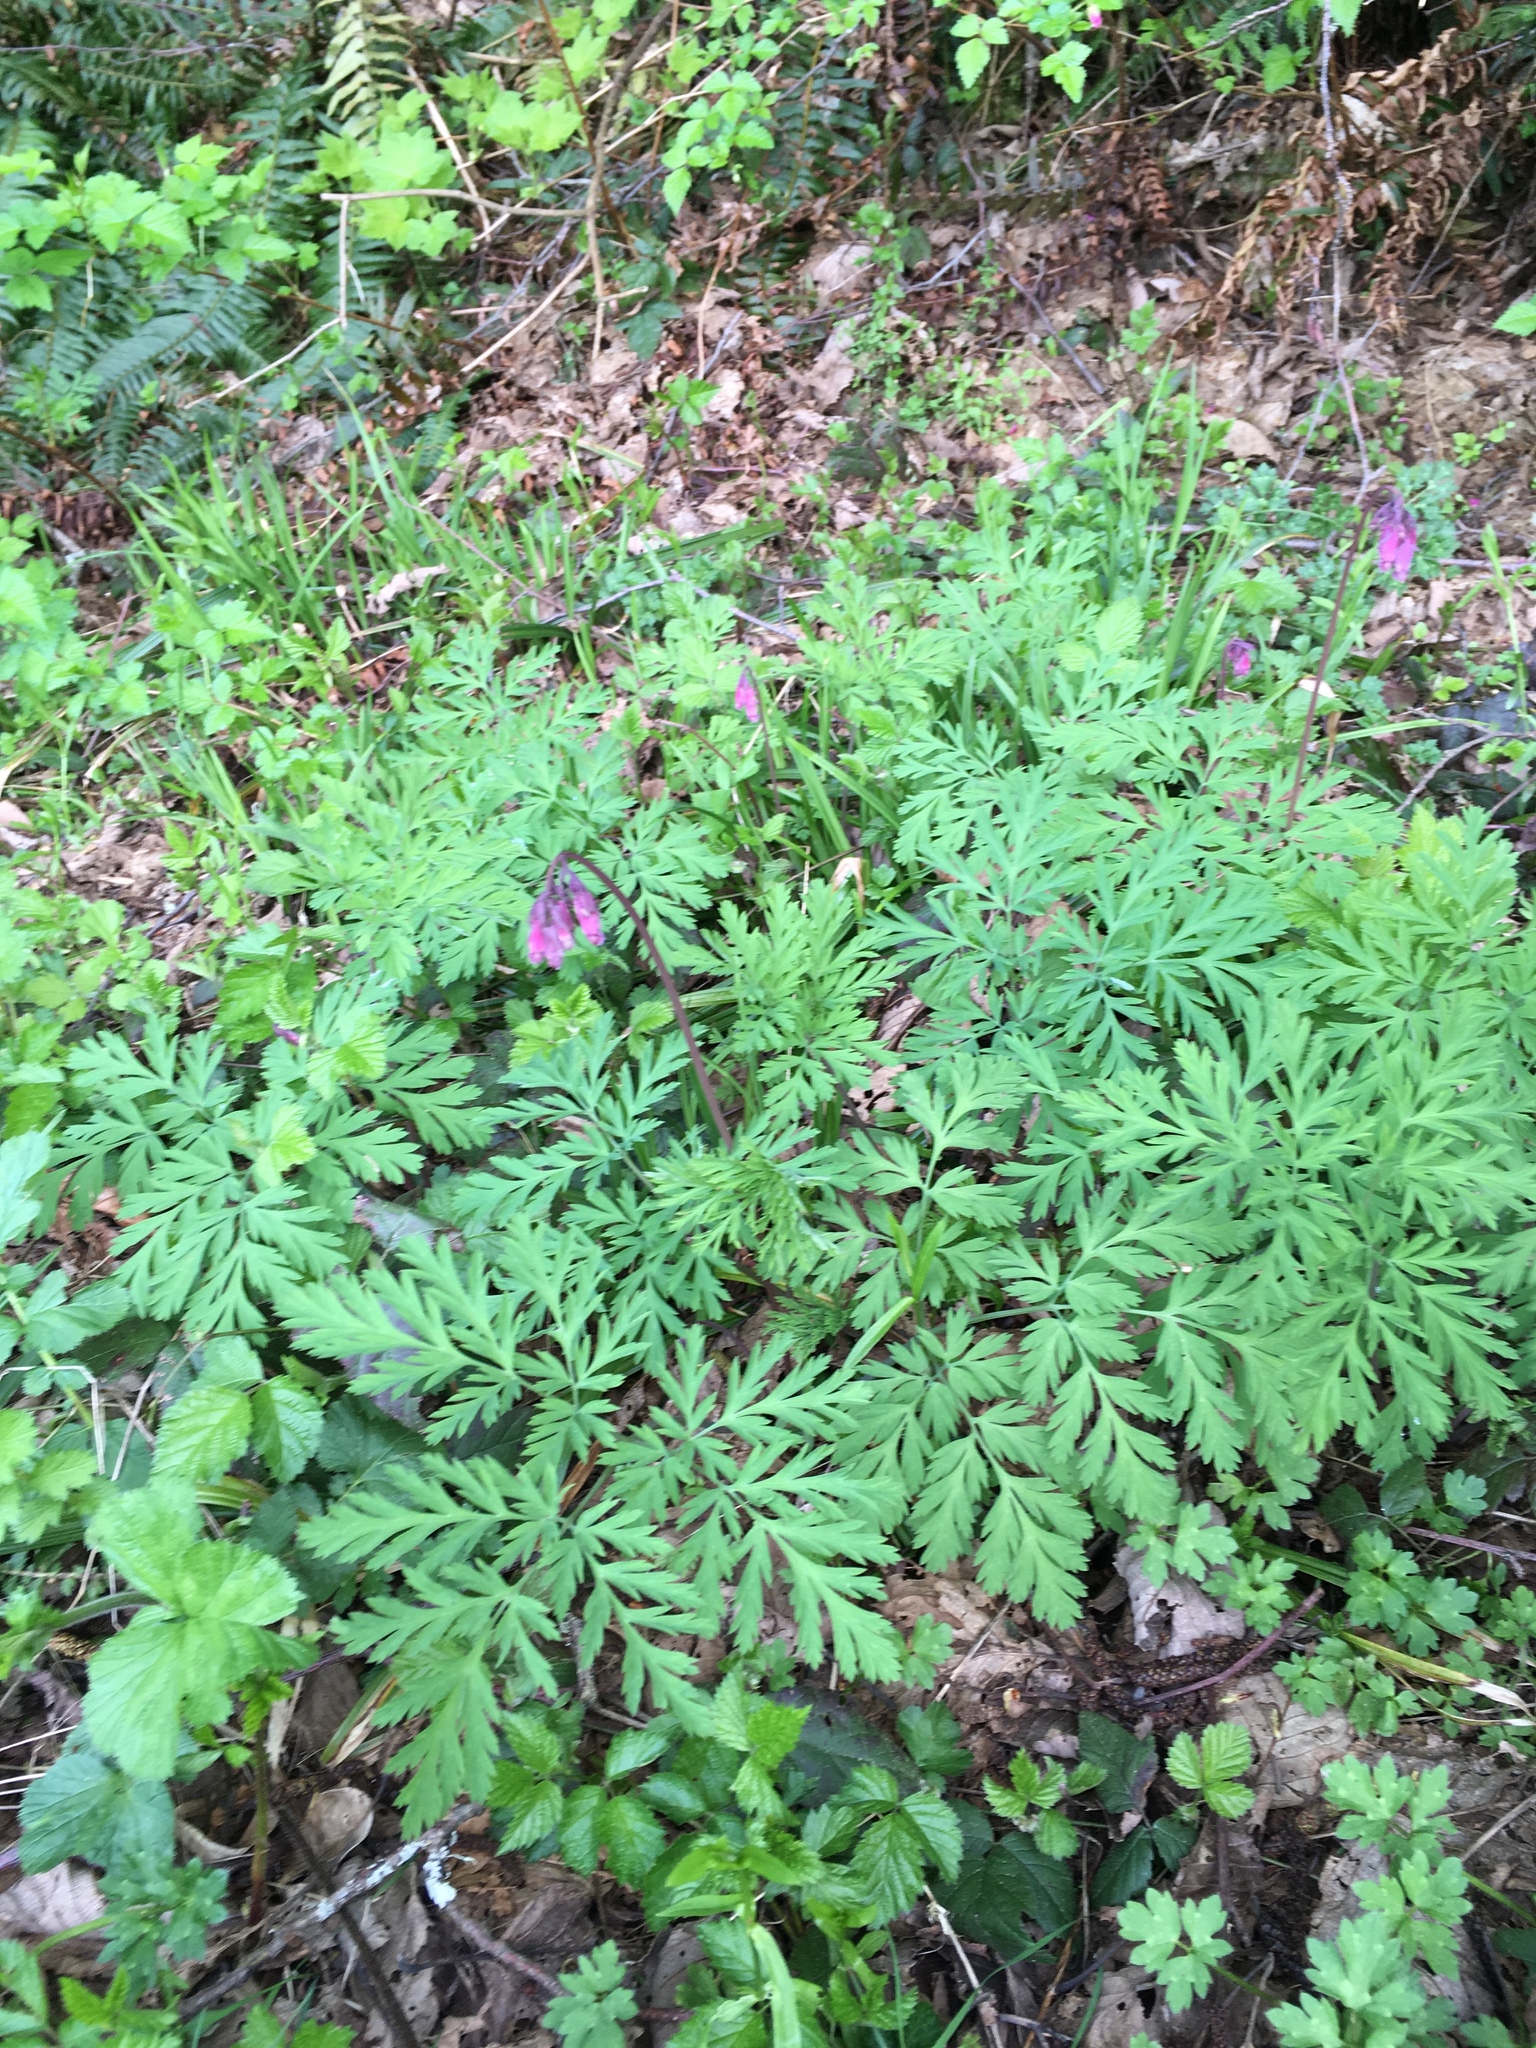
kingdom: Plantae
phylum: Tracheophyta
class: Magnoliopsida
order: Ranunculales
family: Papaveraceae
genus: Dicentra
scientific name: Dicentra formosa
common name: Bleeding-heart
